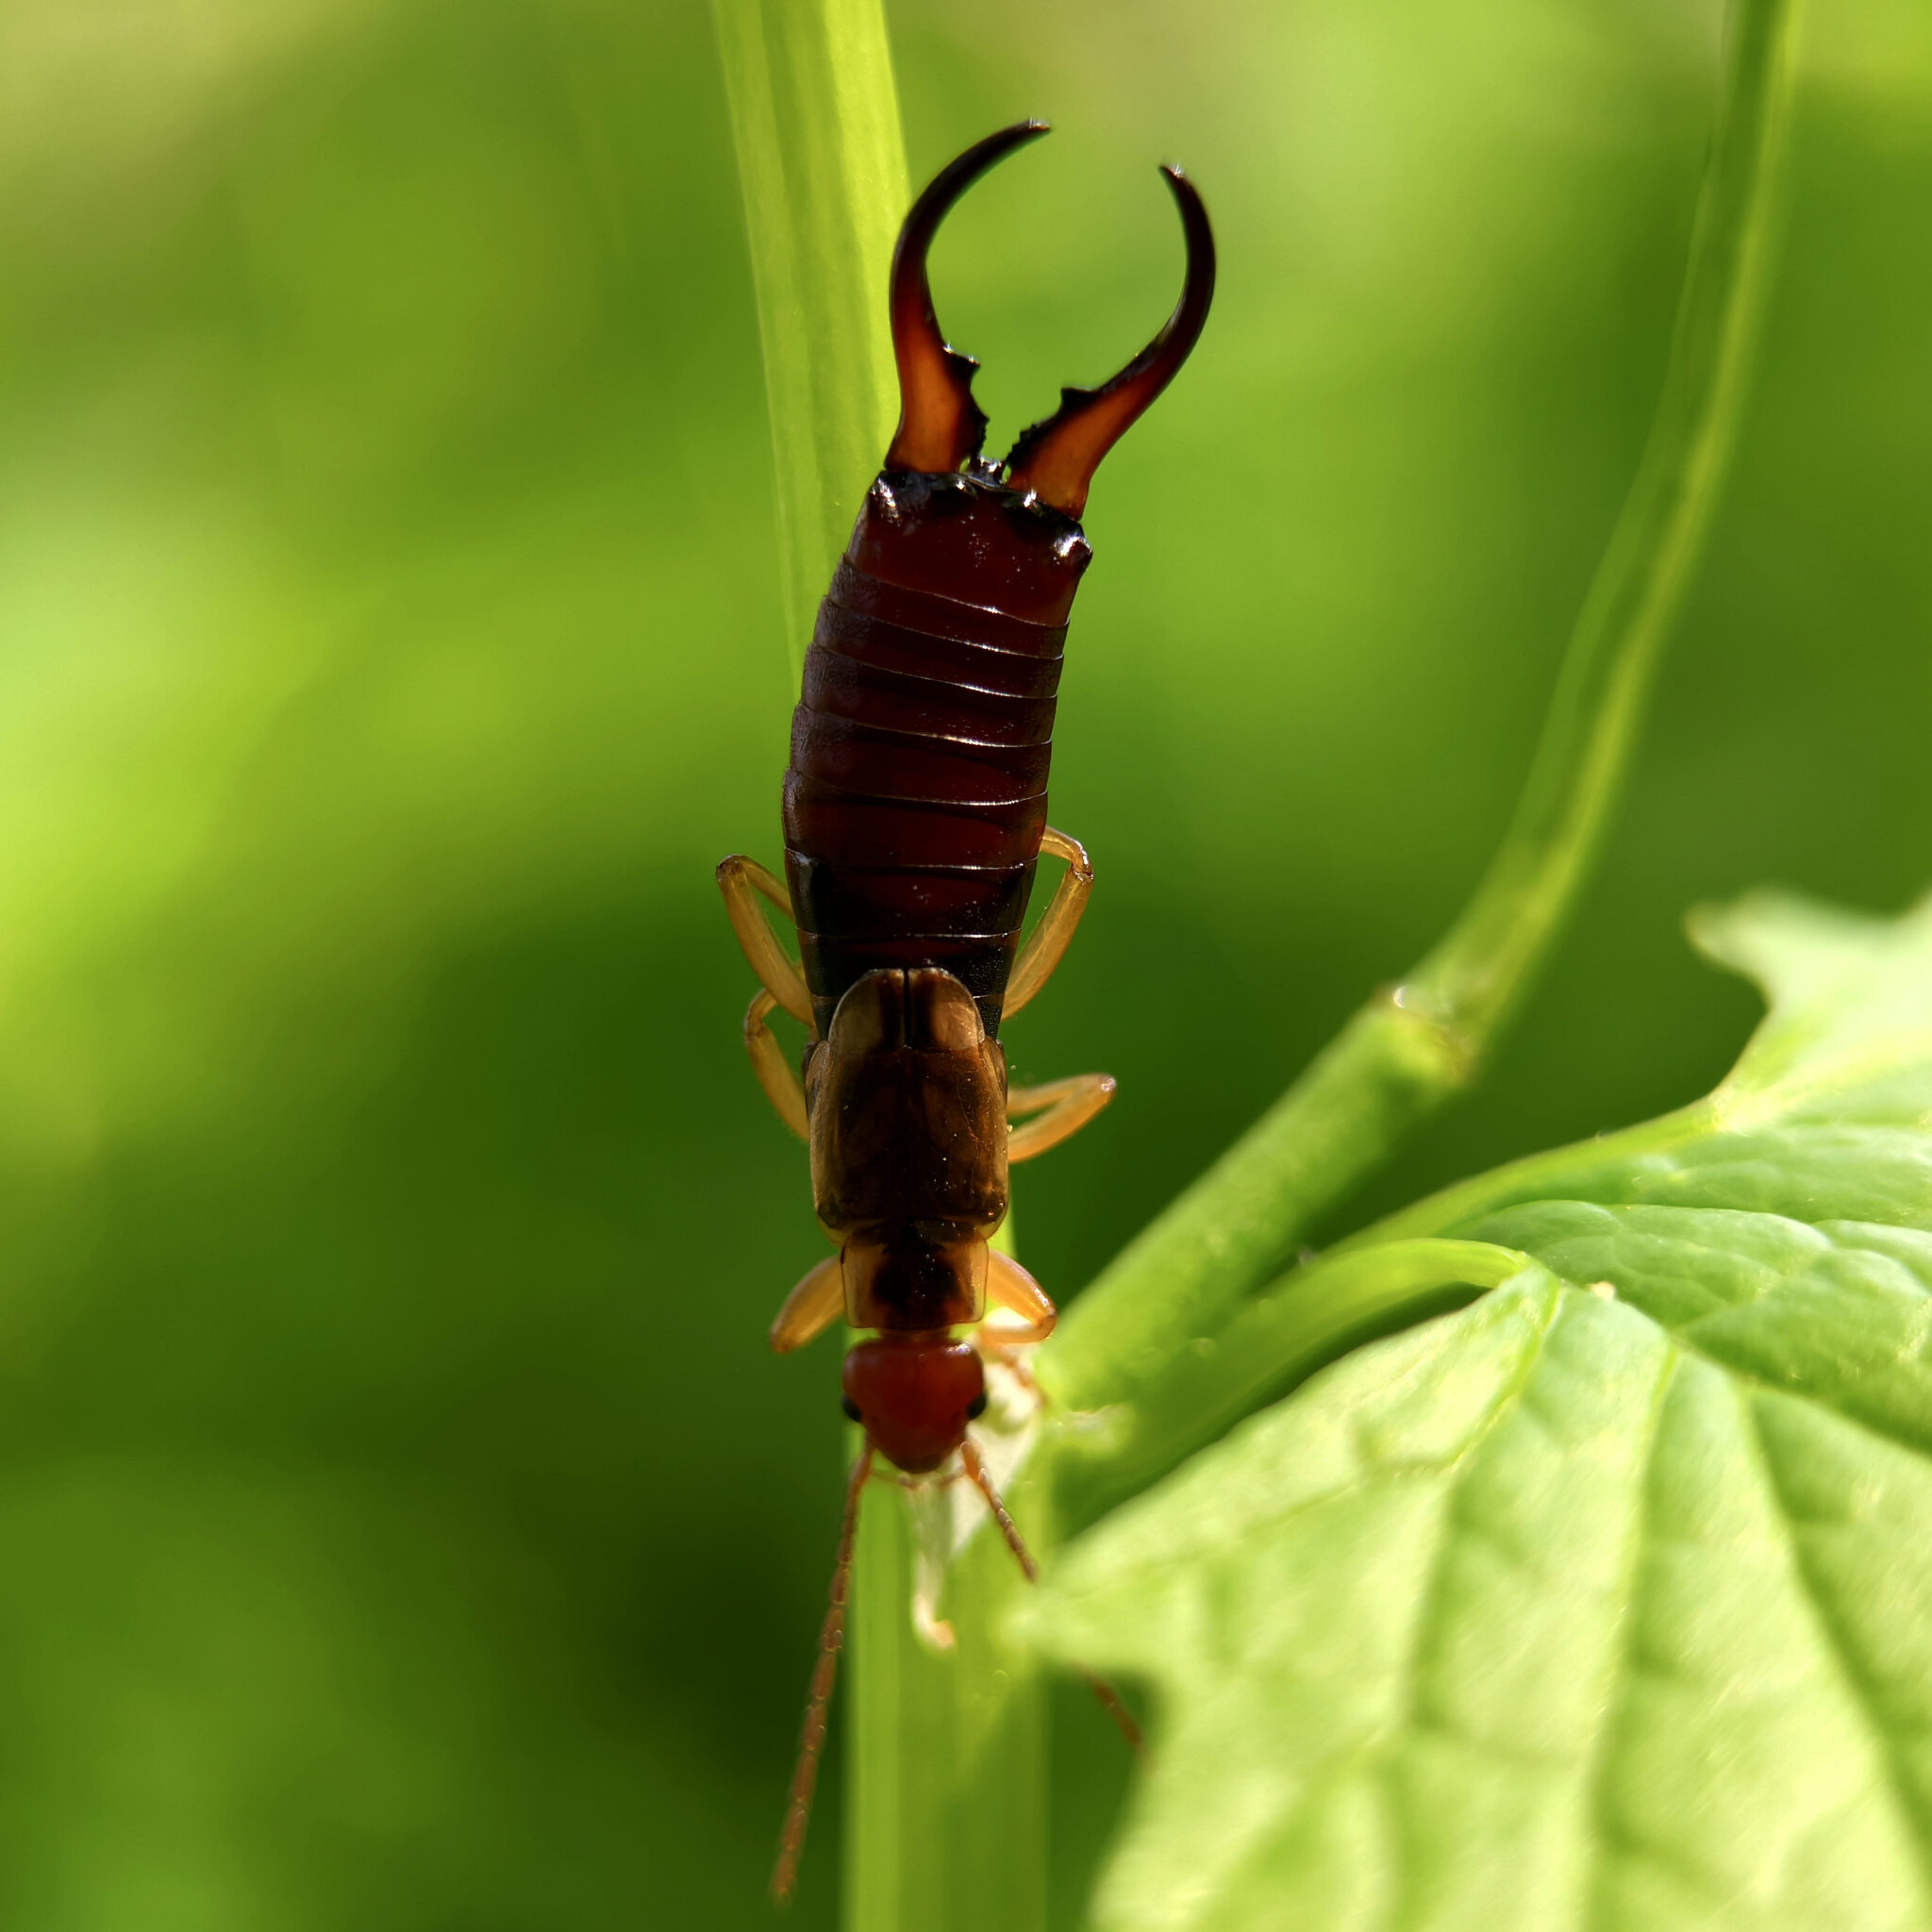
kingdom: Animalia
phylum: Arthropoda
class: Insecta
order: Dermaptera
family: Forficulidae
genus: Forficula
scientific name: Forficula
